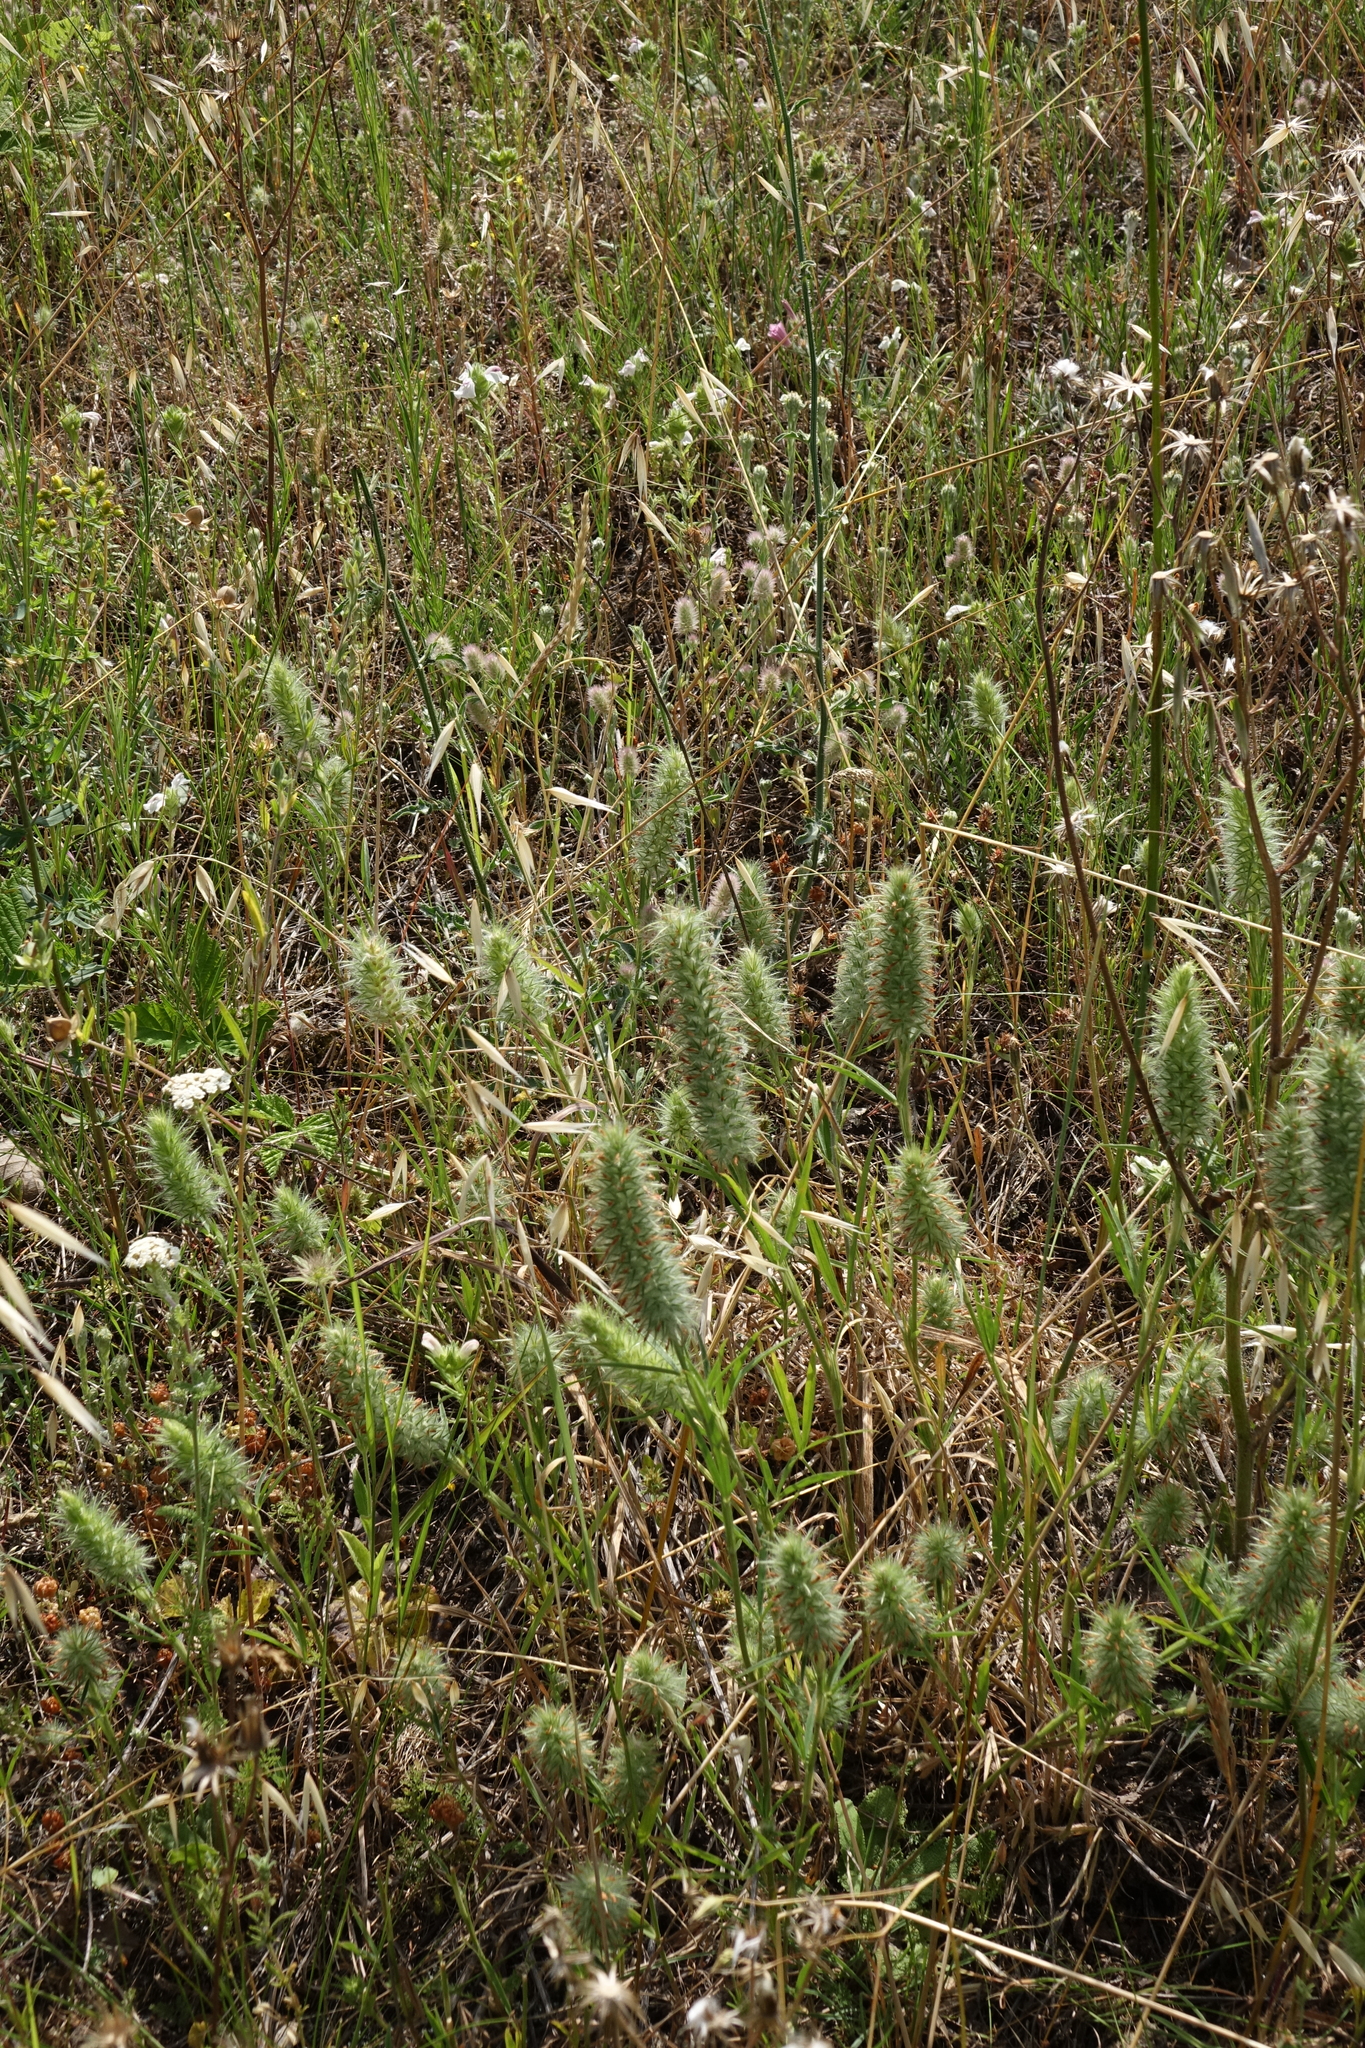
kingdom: Plantae
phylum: Tracheophyta
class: Magnoliopsida
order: Fabales
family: Fabaceae
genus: Trifolium
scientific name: Trifolium angustifolium
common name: Narrow clover
